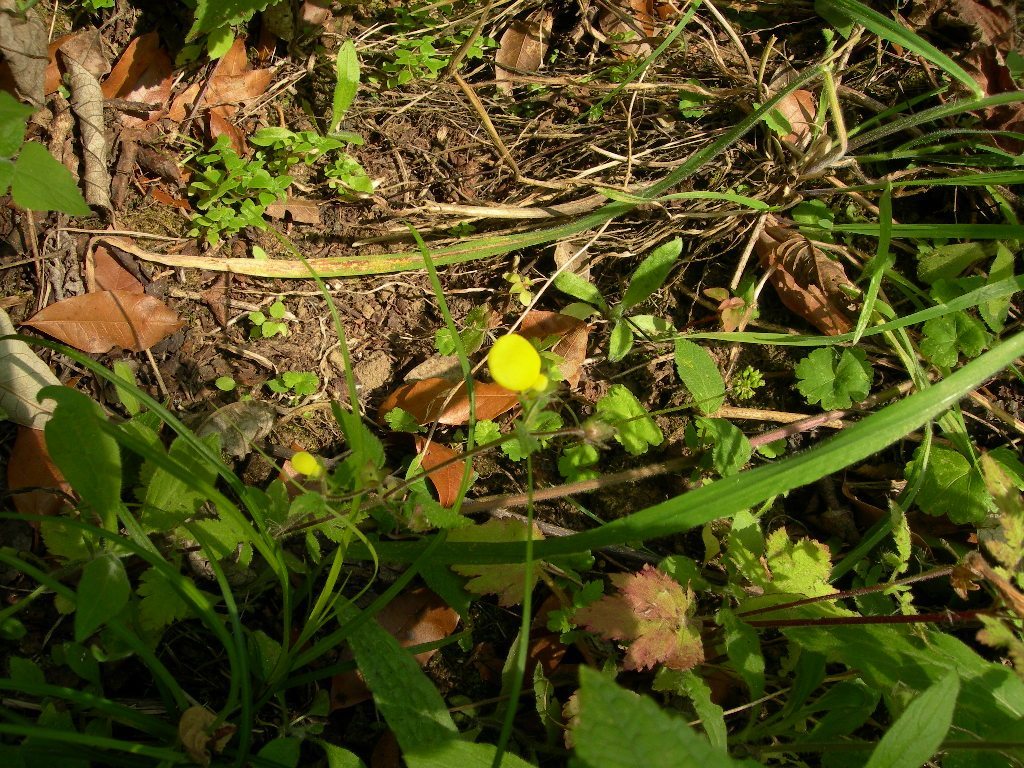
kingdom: Plantae
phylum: Tracheophyta
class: Magnoliopsida
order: Lamiales
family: Calceolariaceae
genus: Calceolaria
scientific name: Calceolaria tripartita
